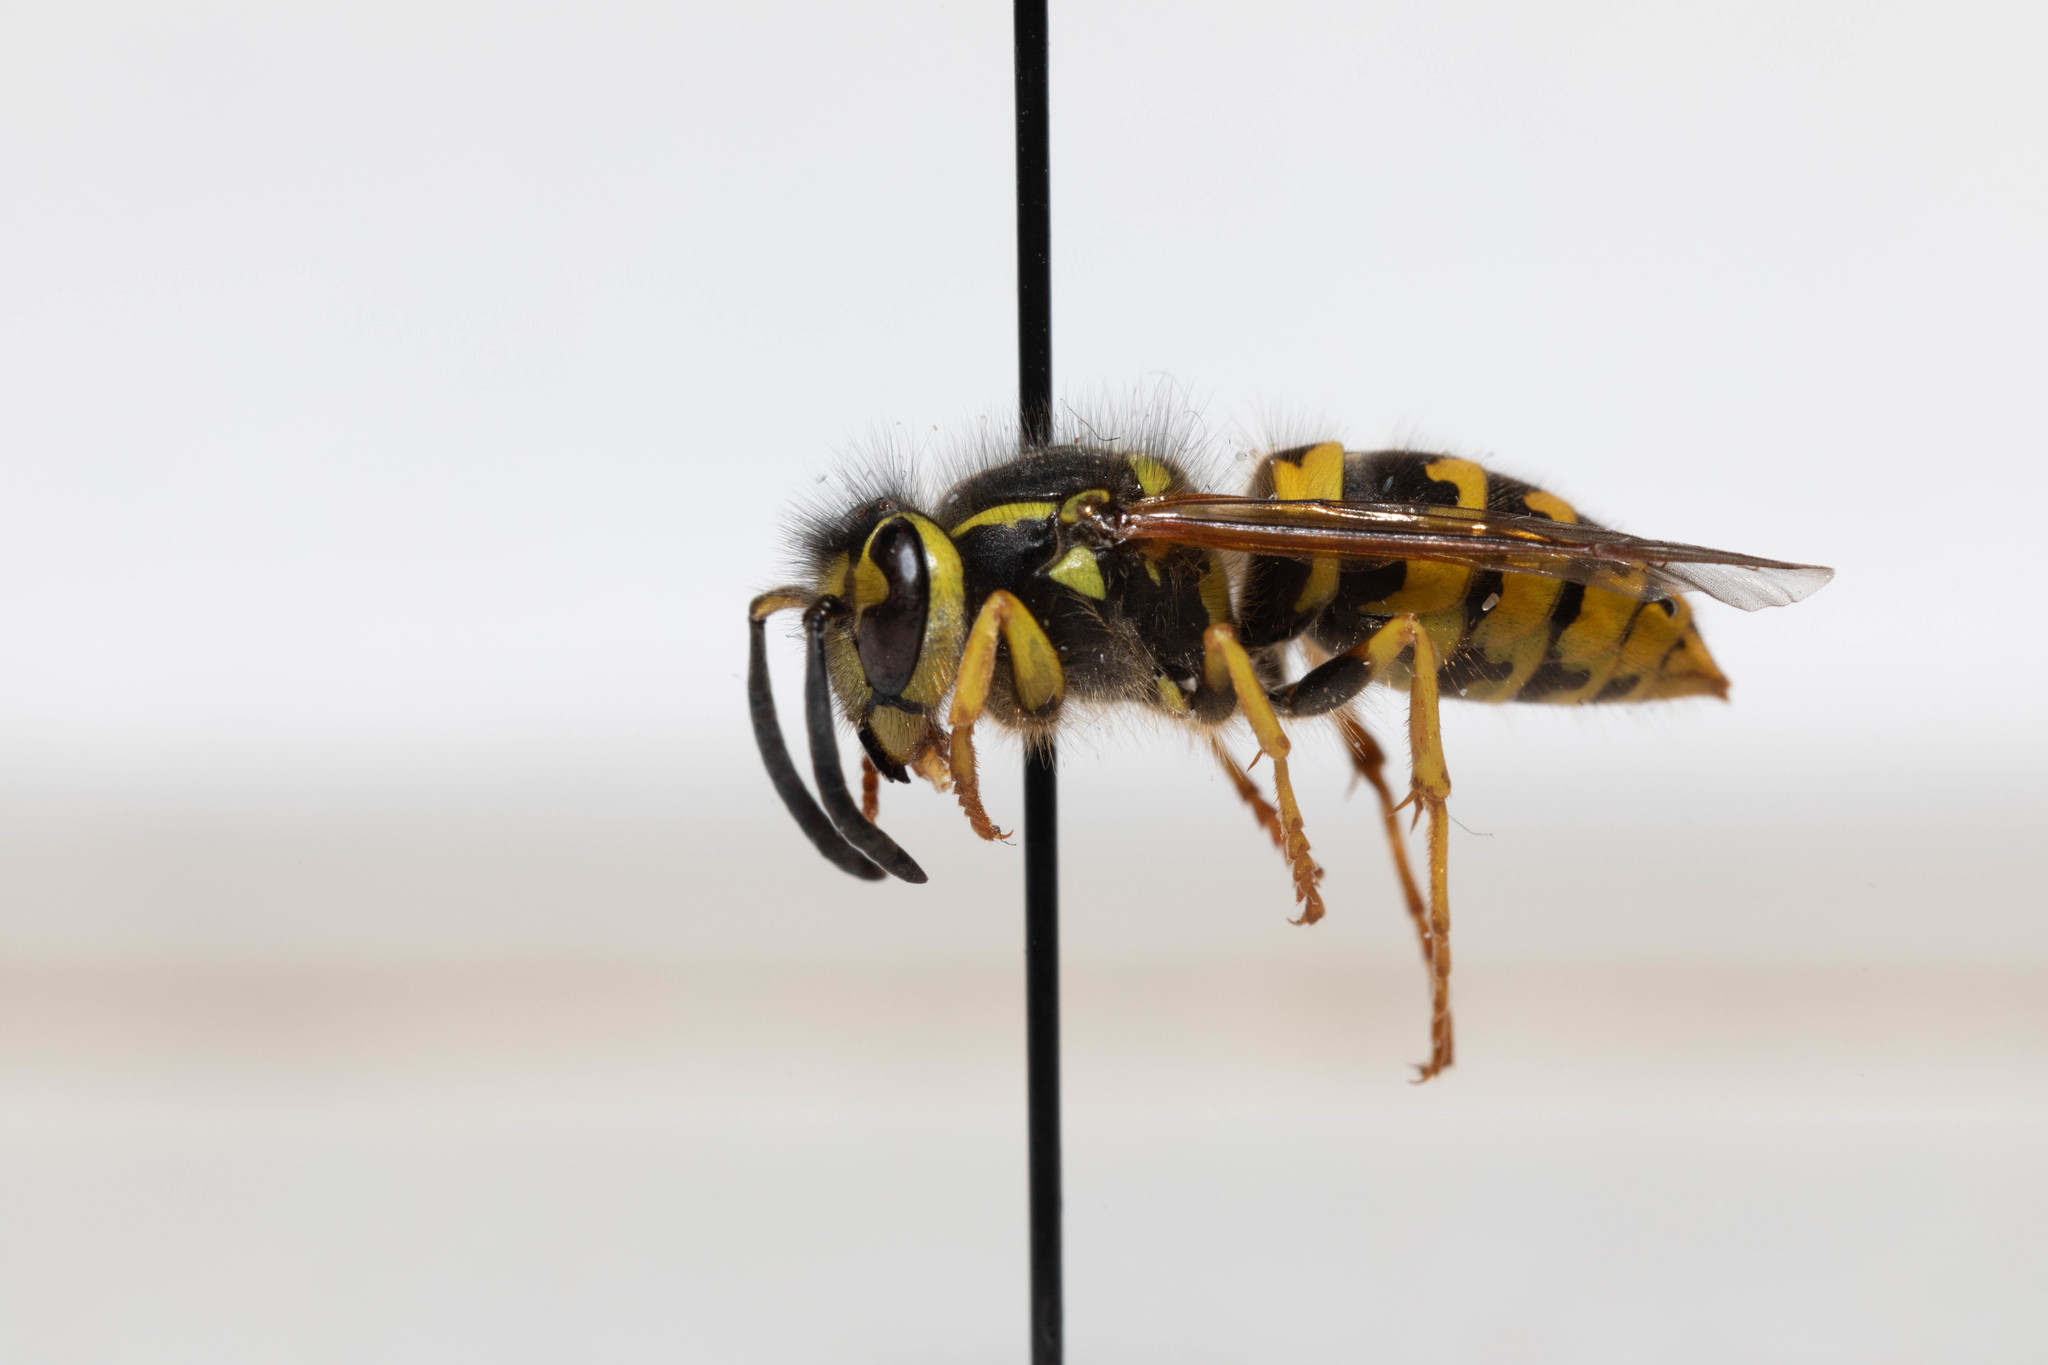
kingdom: Animalia
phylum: Arthropoda
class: Insecta
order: Hymenoptera
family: Vespidae
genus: Vespula
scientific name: Vespula pensylvanica
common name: Western yellowjacket
